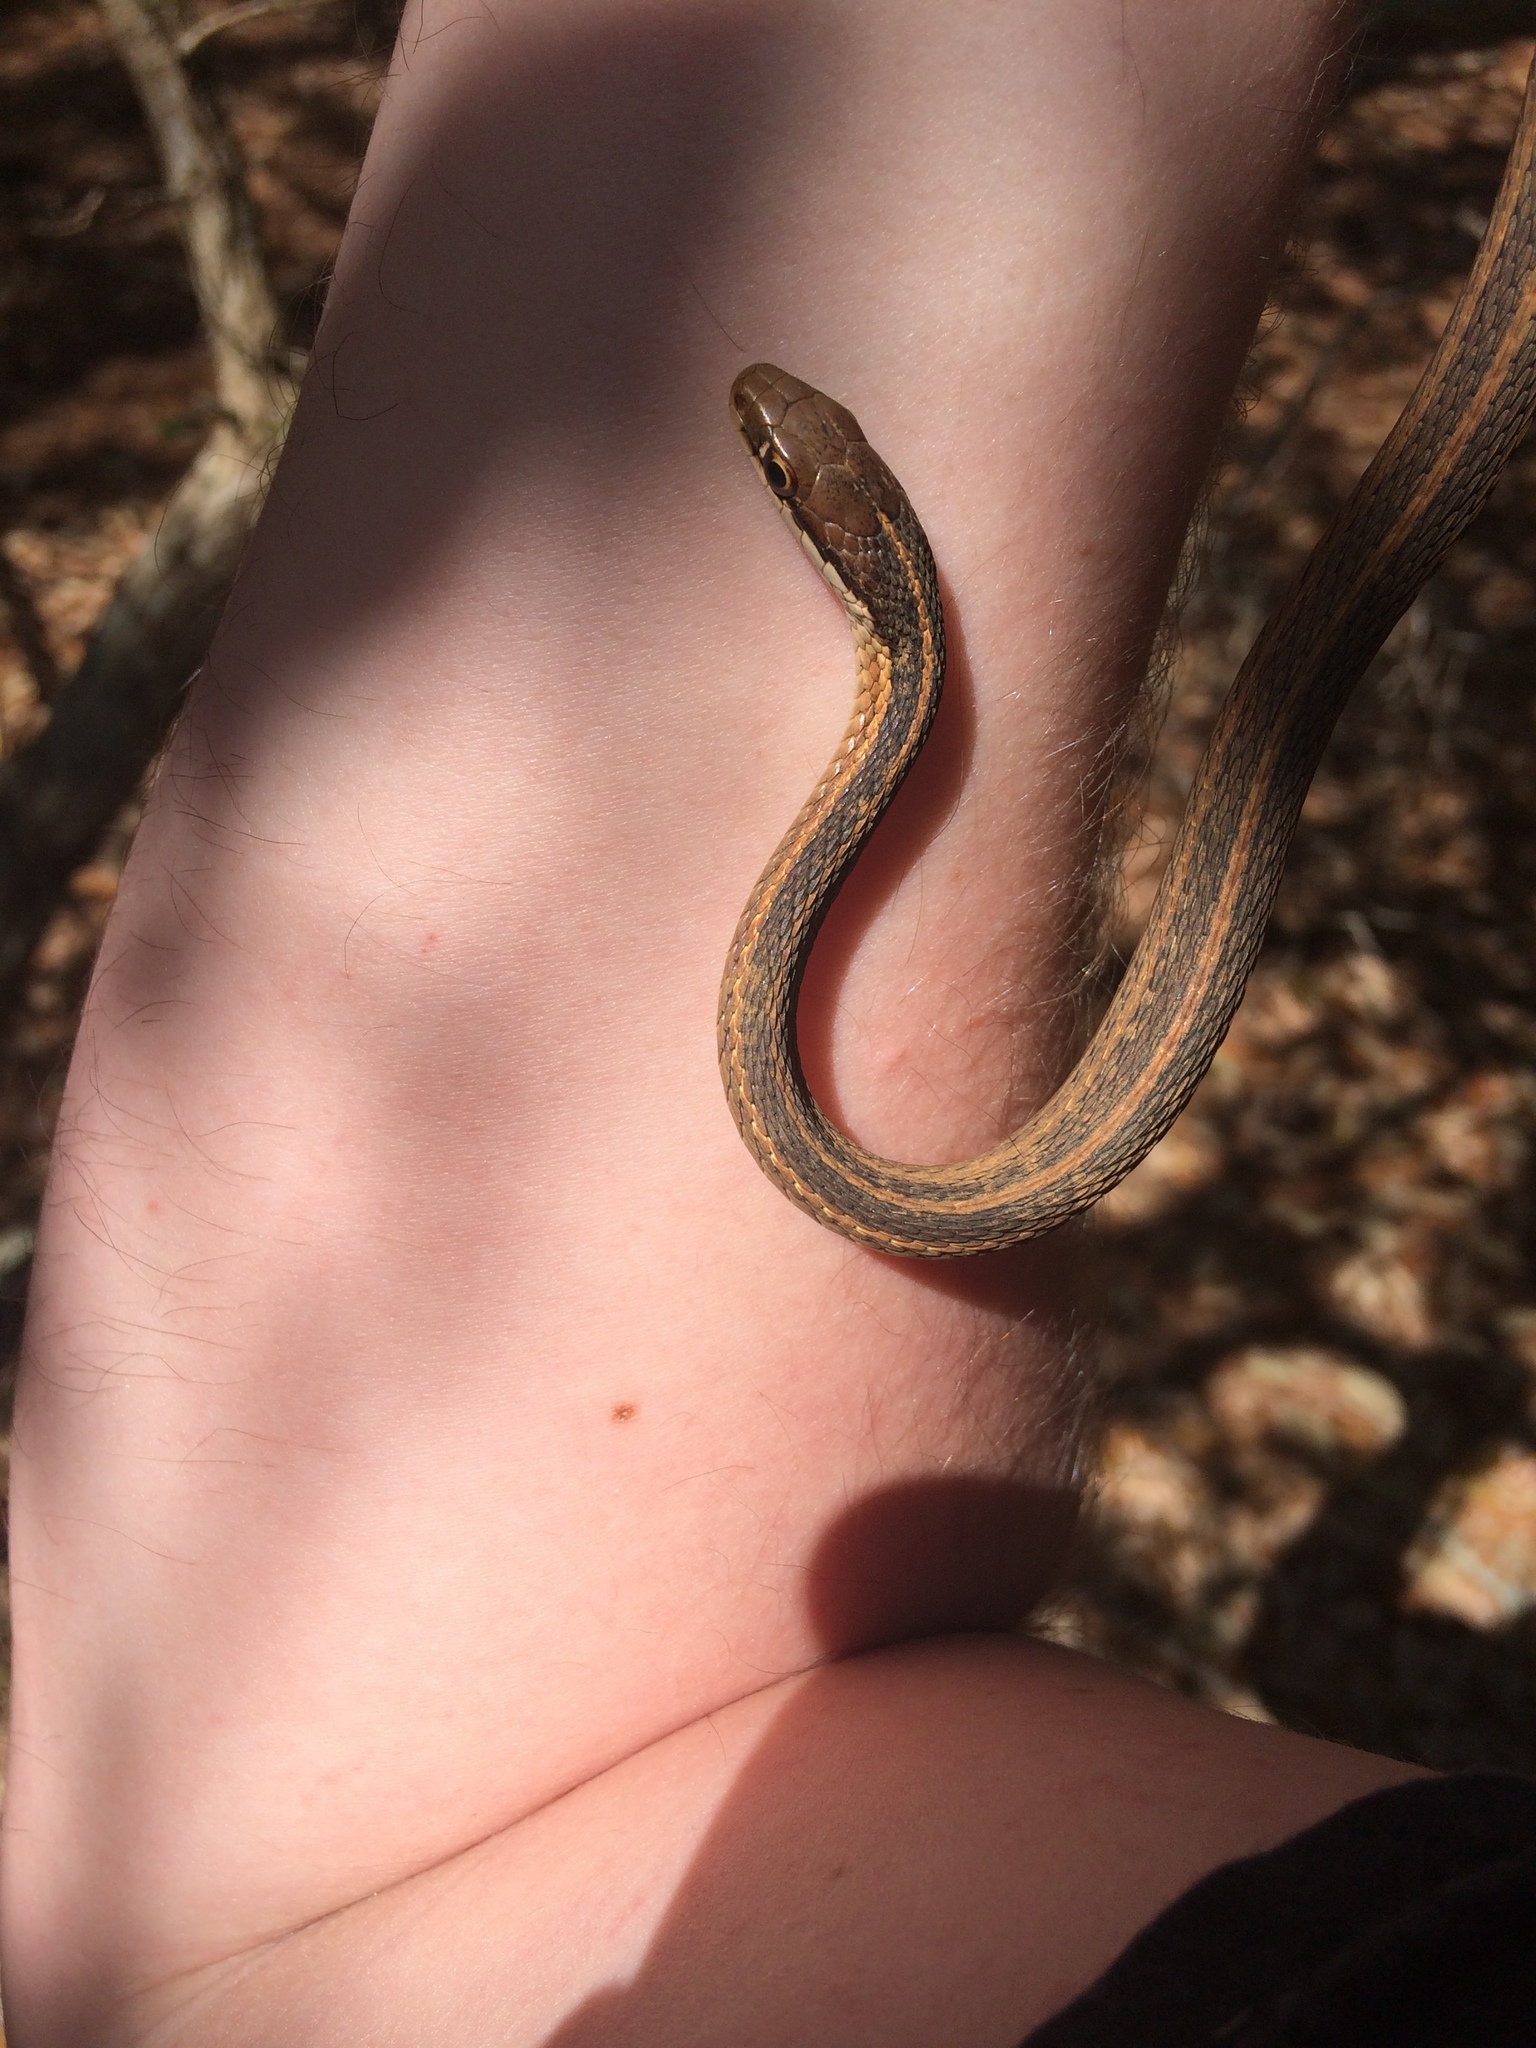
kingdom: Animalia
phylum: Chordata
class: Squamata
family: Colubridae
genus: Thamnophis
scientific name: Thamnophis saurita
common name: Eastern ribbonsnake
